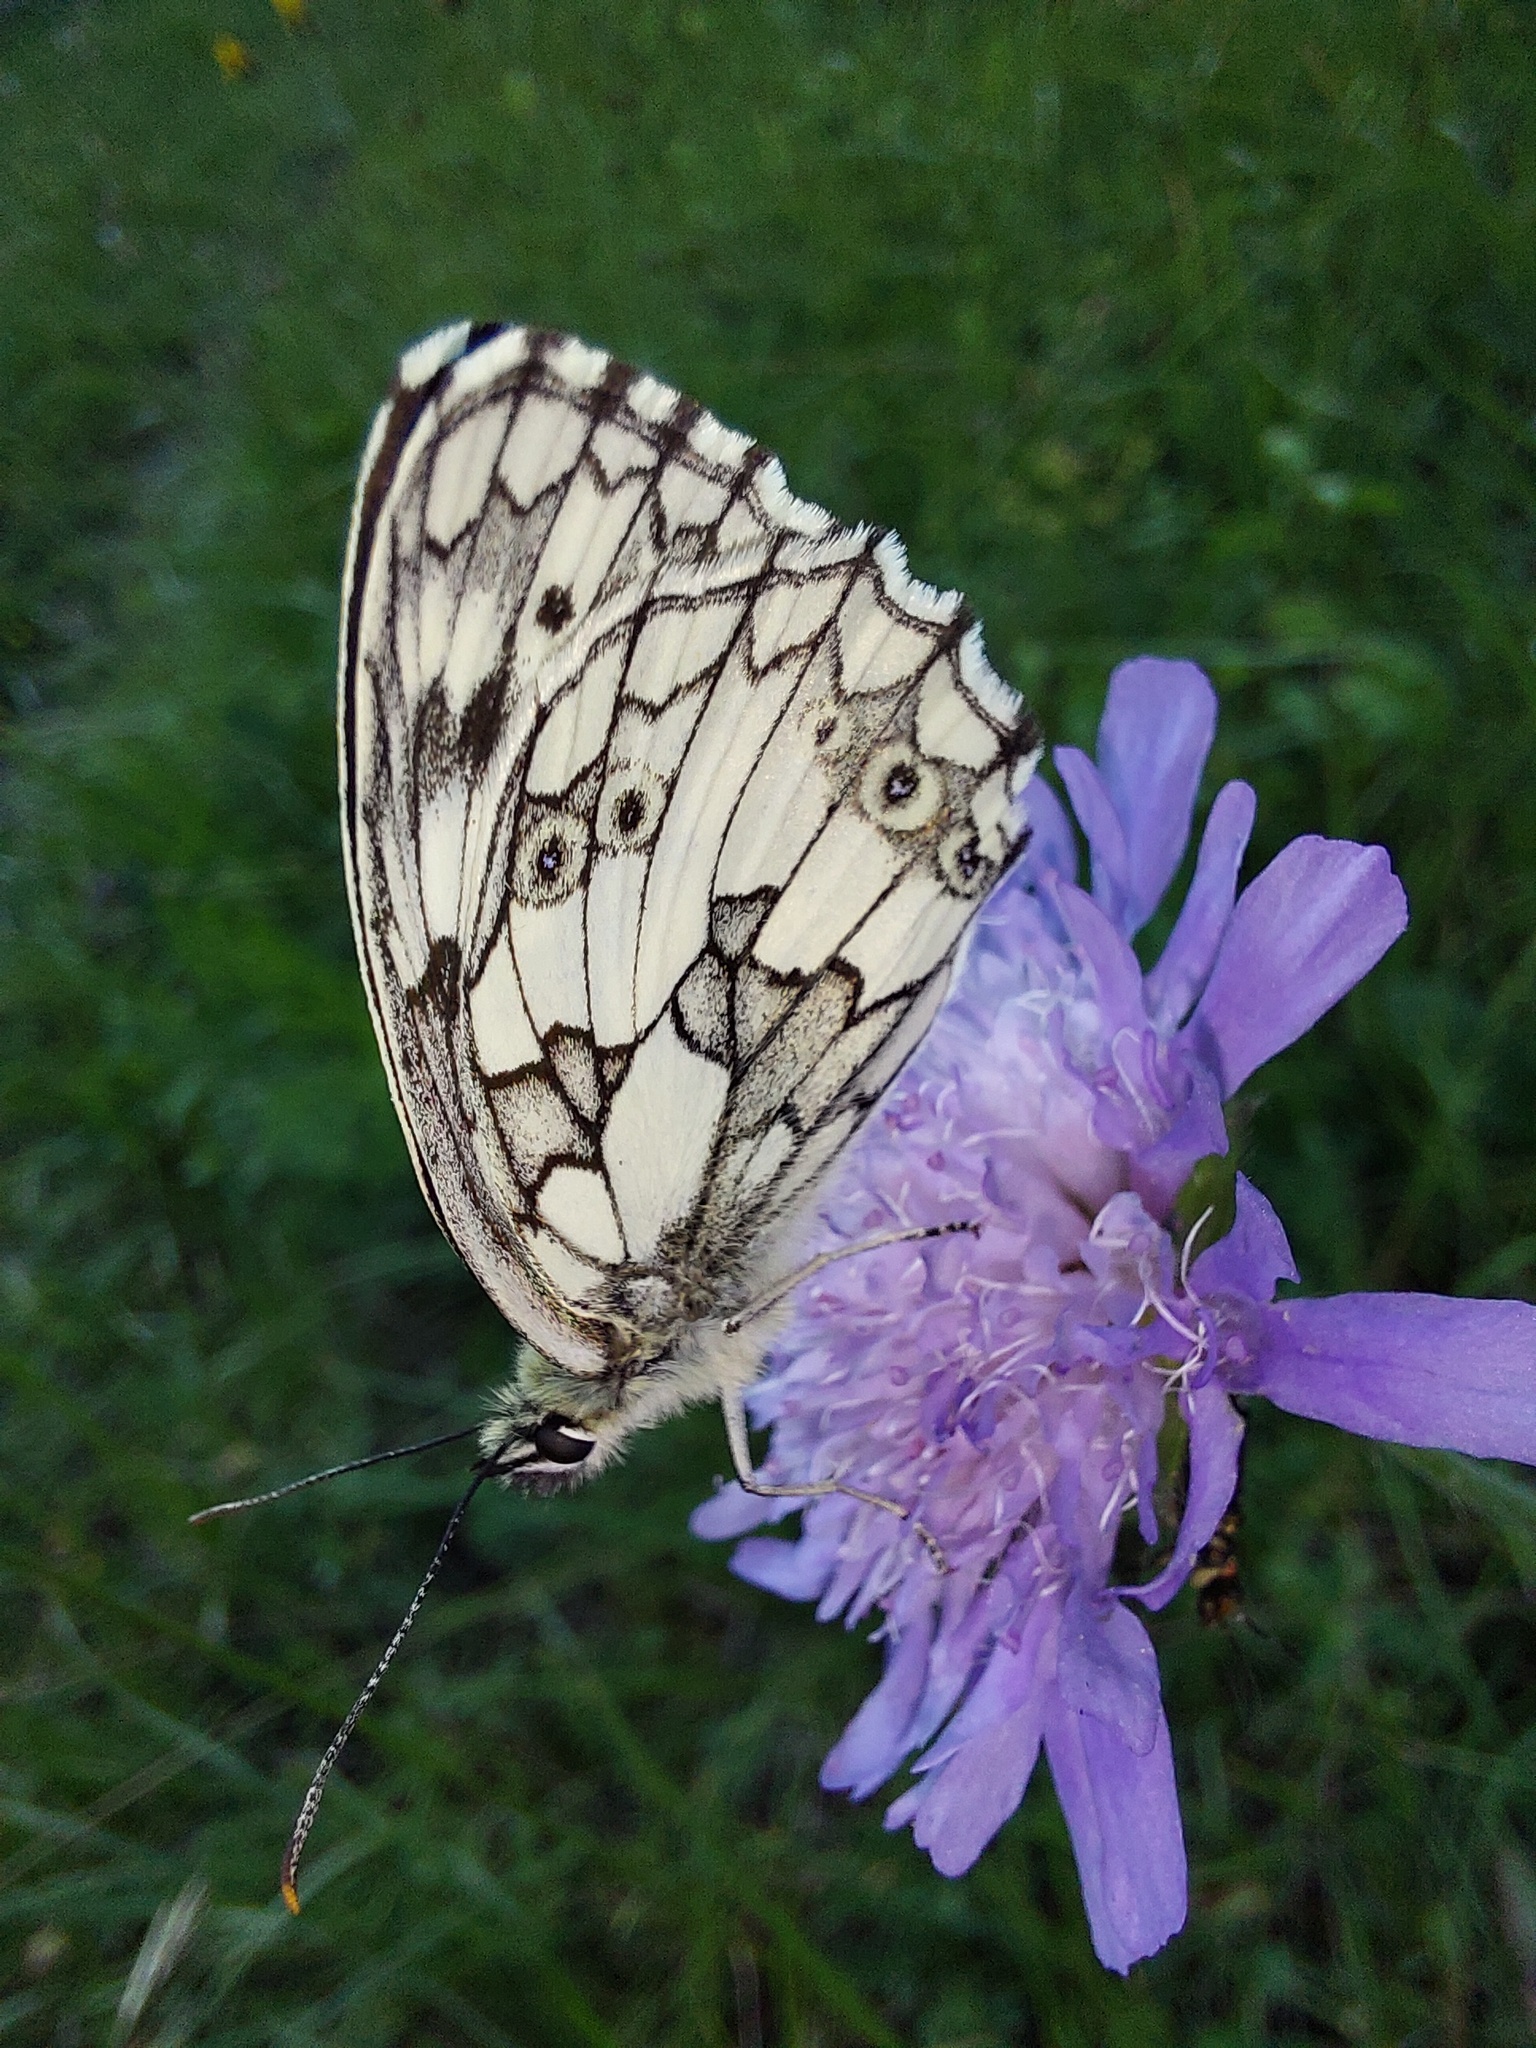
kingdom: Animalia
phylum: Arthropoda
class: Insecta
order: Lepidoptera
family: Nymphalidae
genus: Melanargia
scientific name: Melanargia galathea
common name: Marbled white
